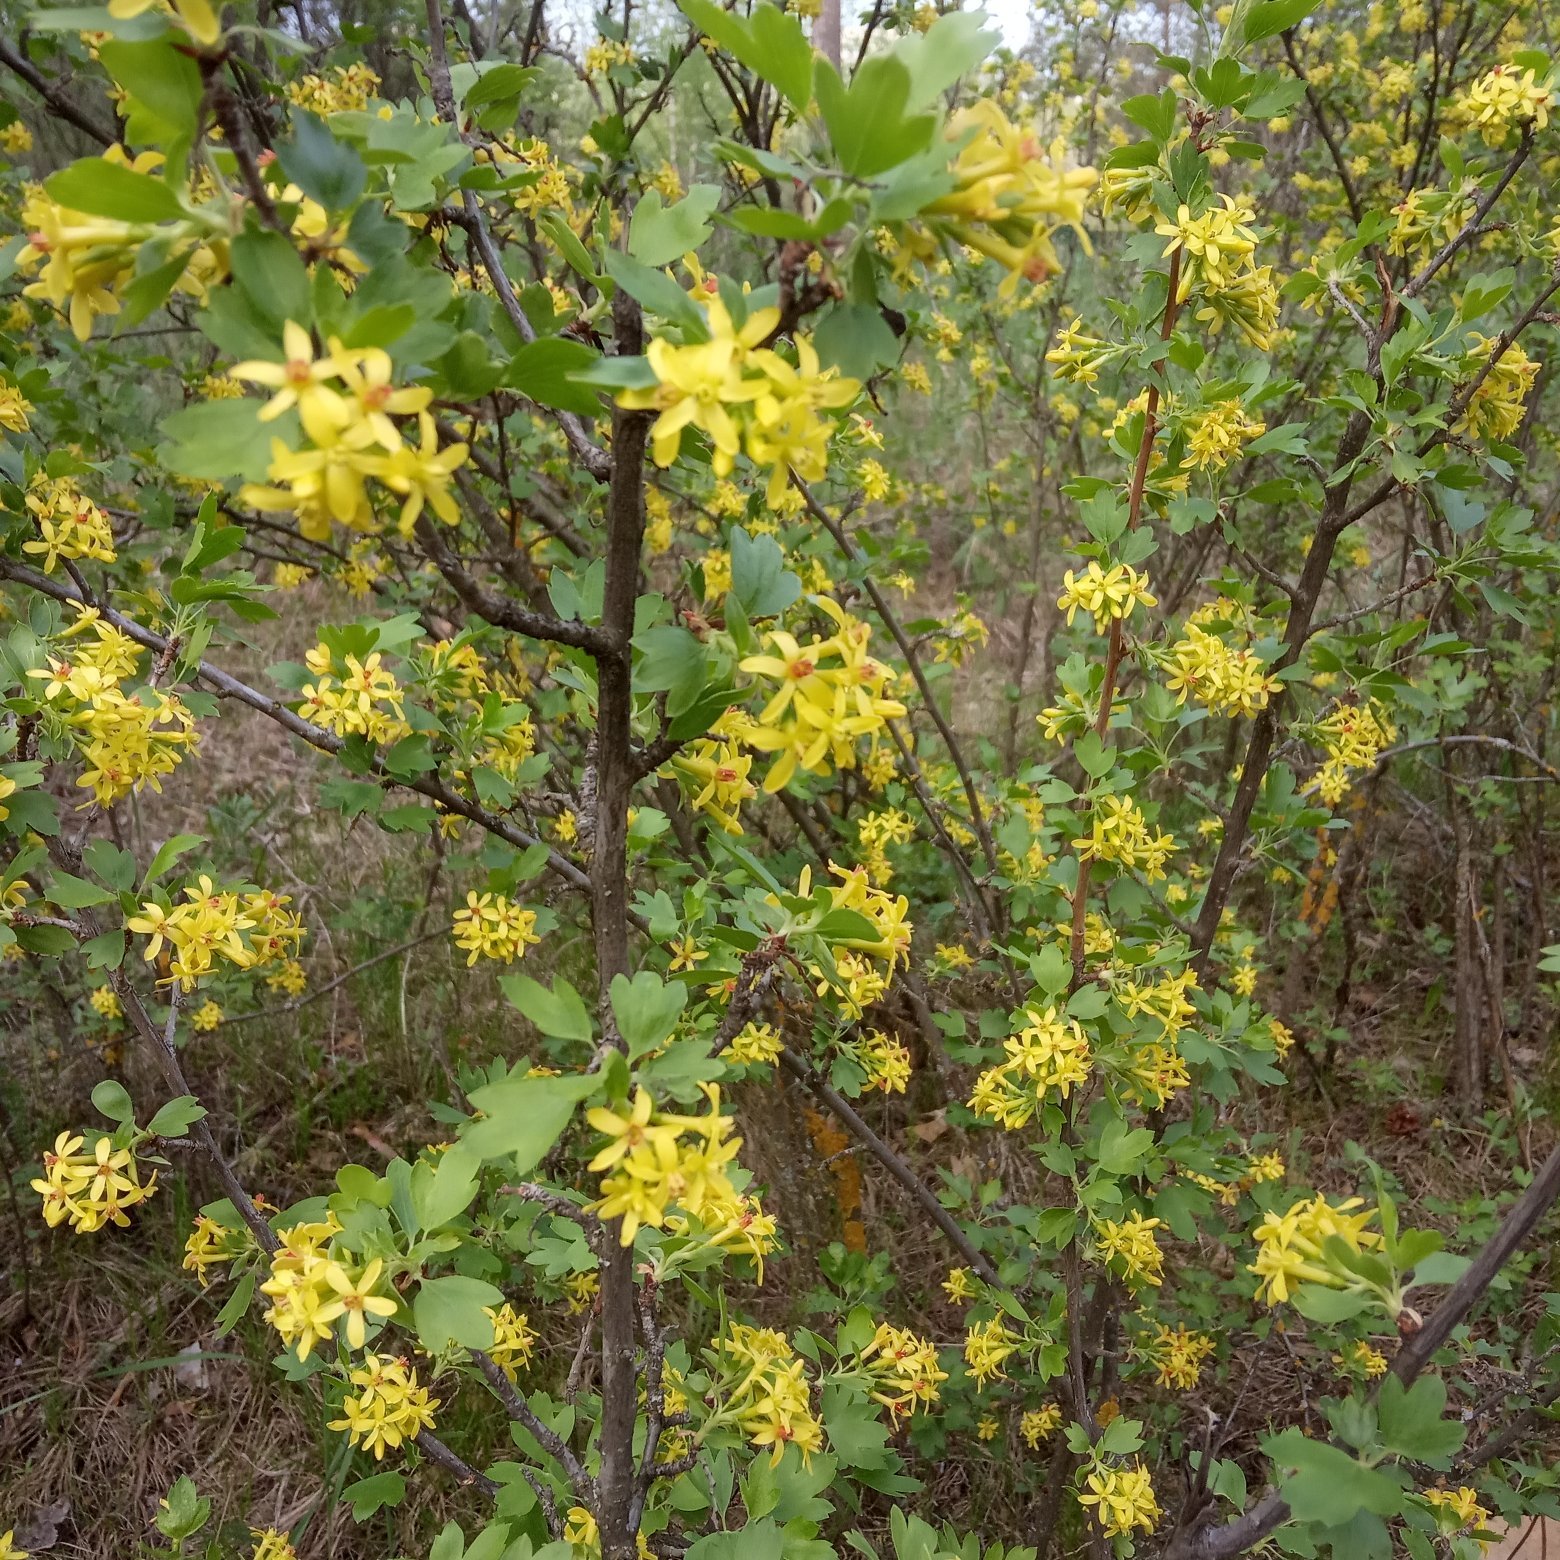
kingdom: Plantae
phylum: Tracheophyta
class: Magnoliopsida
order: Saxifragales
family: Grossulariaceae
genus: Ribes
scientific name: Ribes aureum
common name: Golden currant
